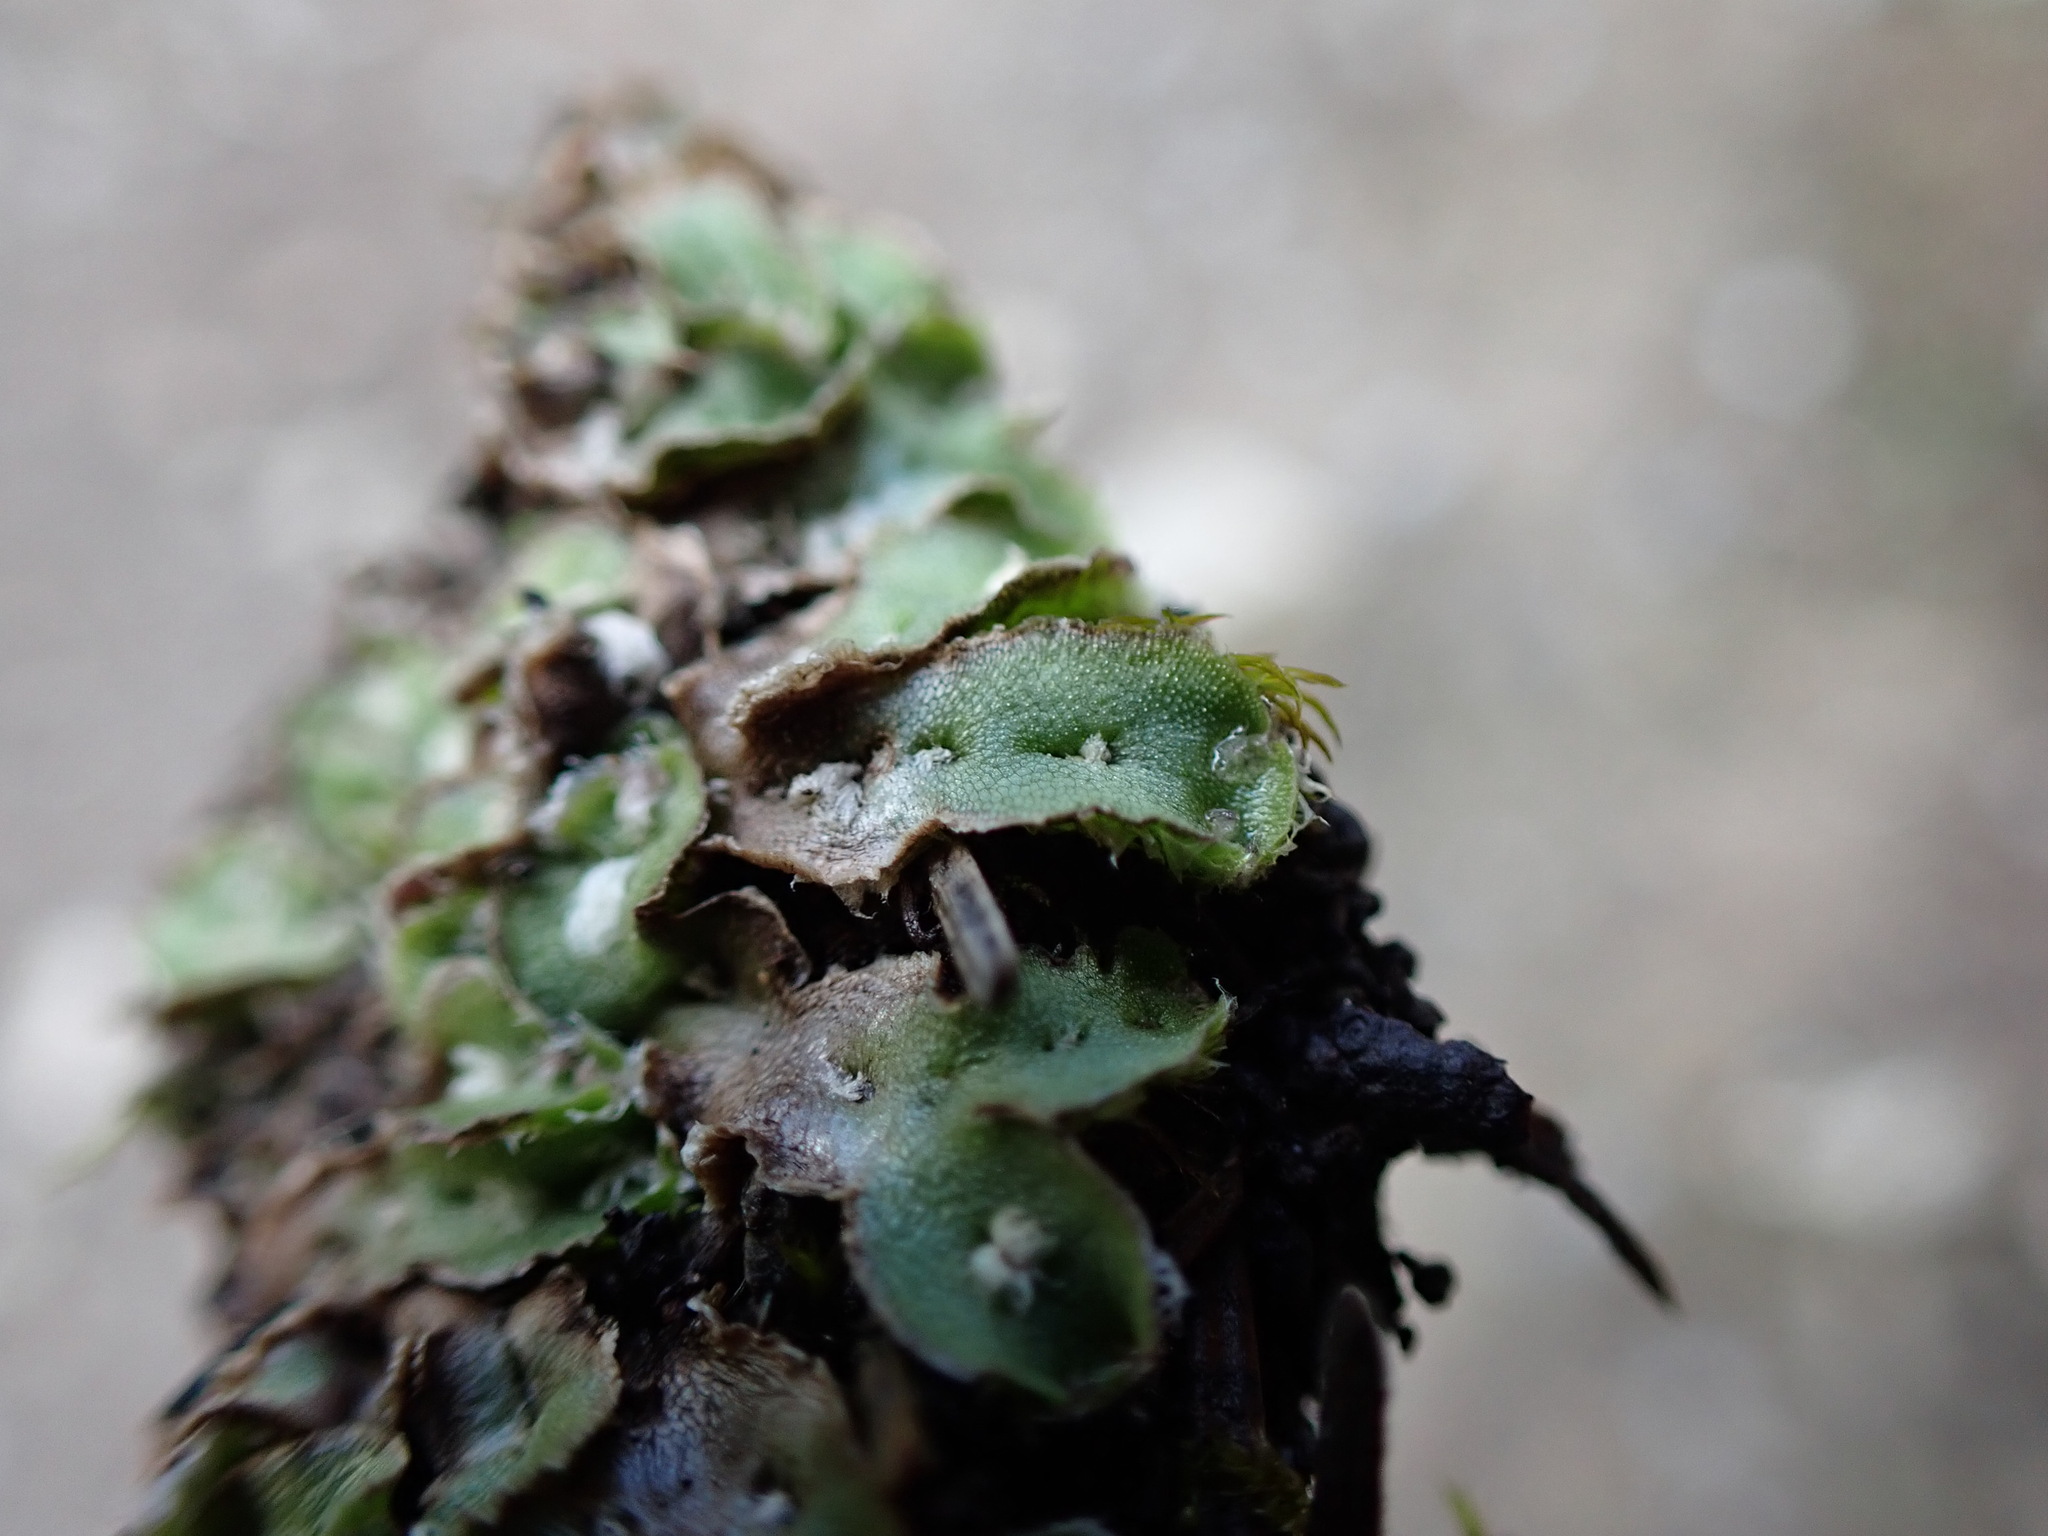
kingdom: Plantae
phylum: Marchantiophyta
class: Marchantiopsida
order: Marchantiales
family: Cleveaceae
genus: Clevea
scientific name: Clevea hyalina
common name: Hyaline liverwort
